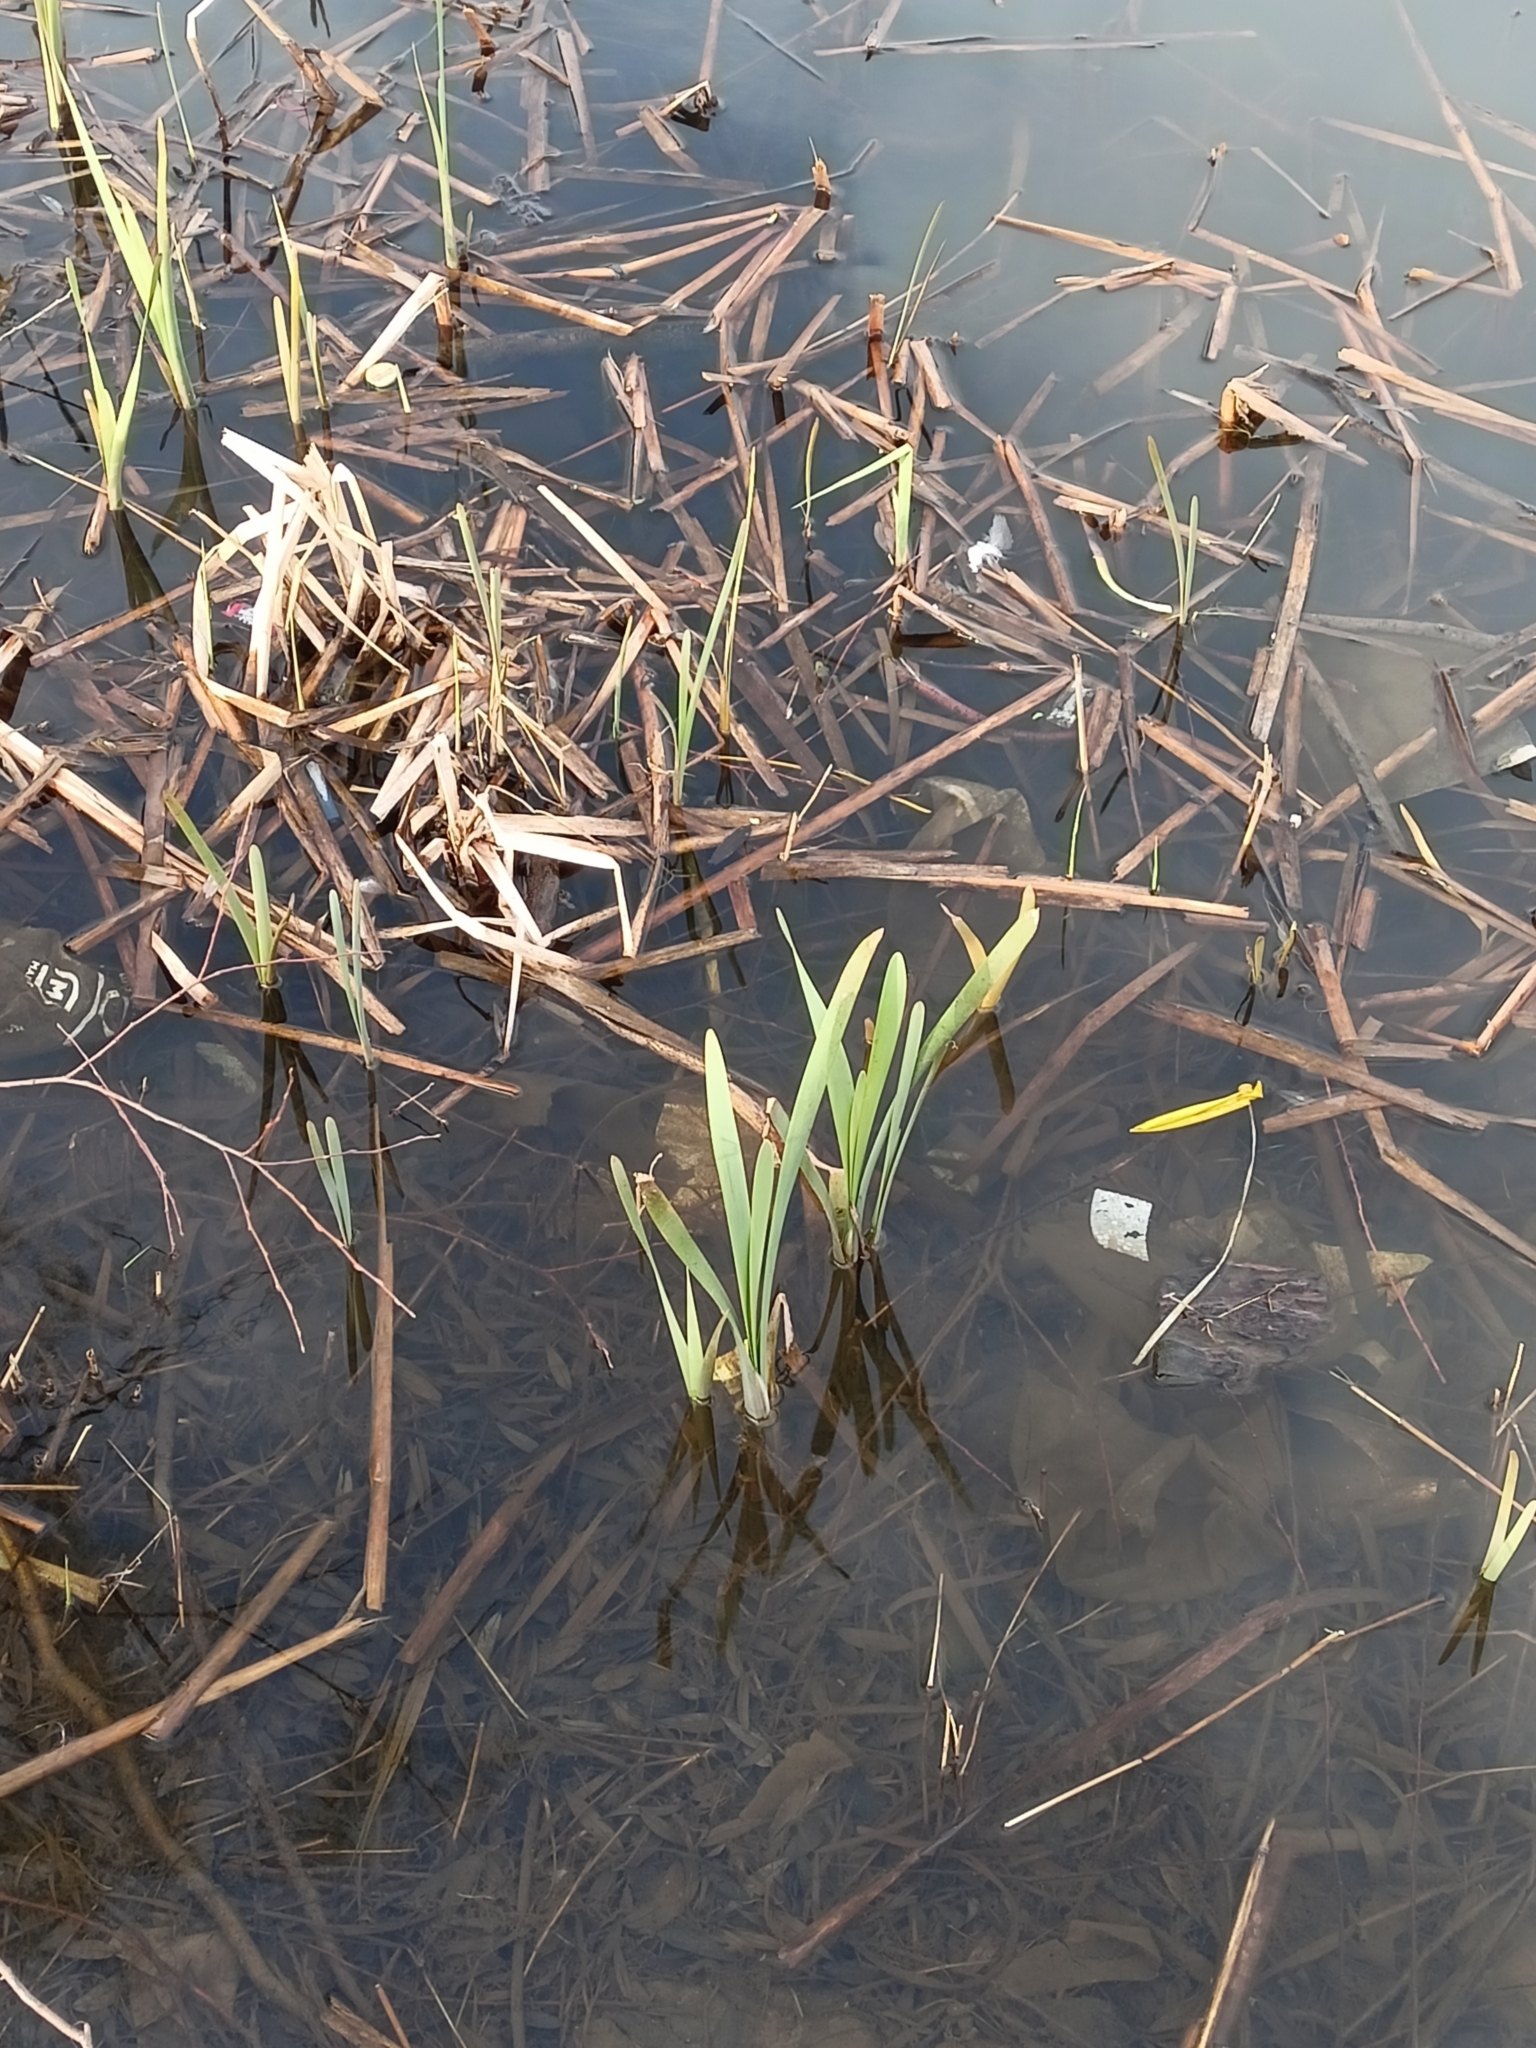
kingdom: Plantae
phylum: Tracheophyta
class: Liliopsida
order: Poales
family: Typhaceae
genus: Typha
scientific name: Typha
